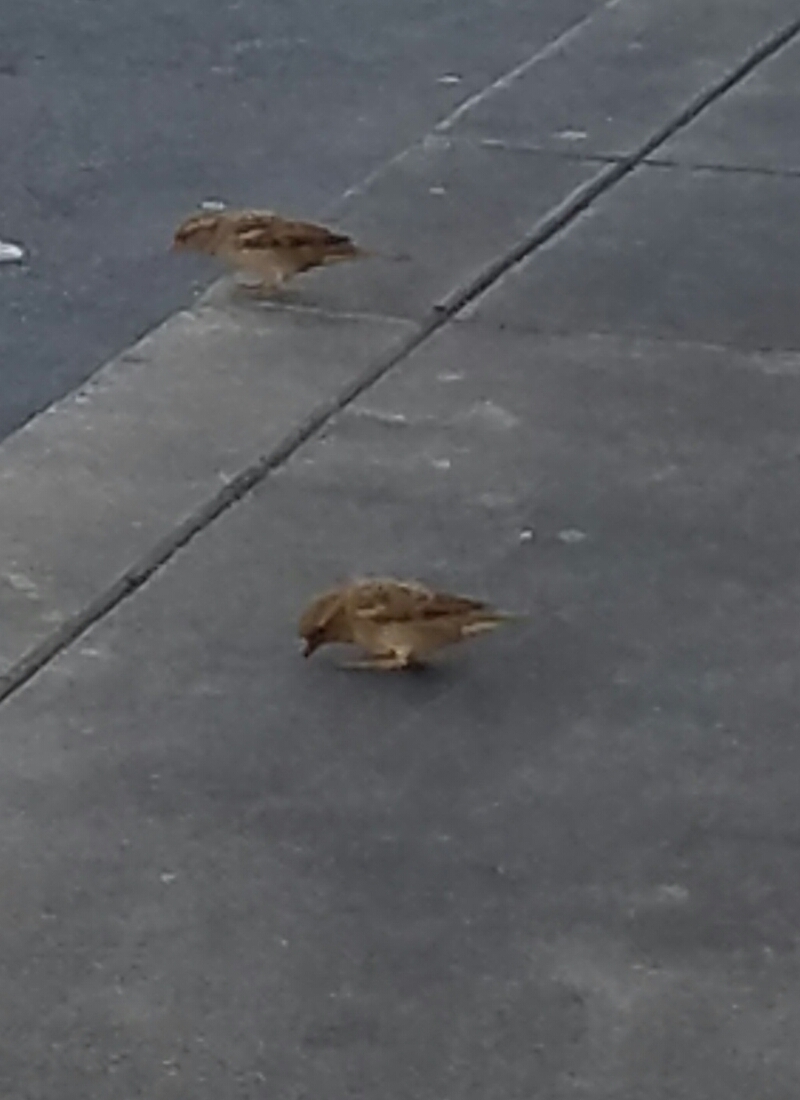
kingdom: Animalia
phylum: Chordata
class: Aves
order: Passeriformes
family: Passeridae
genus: Passer
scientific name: Passer domesticus
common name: House sparrow
